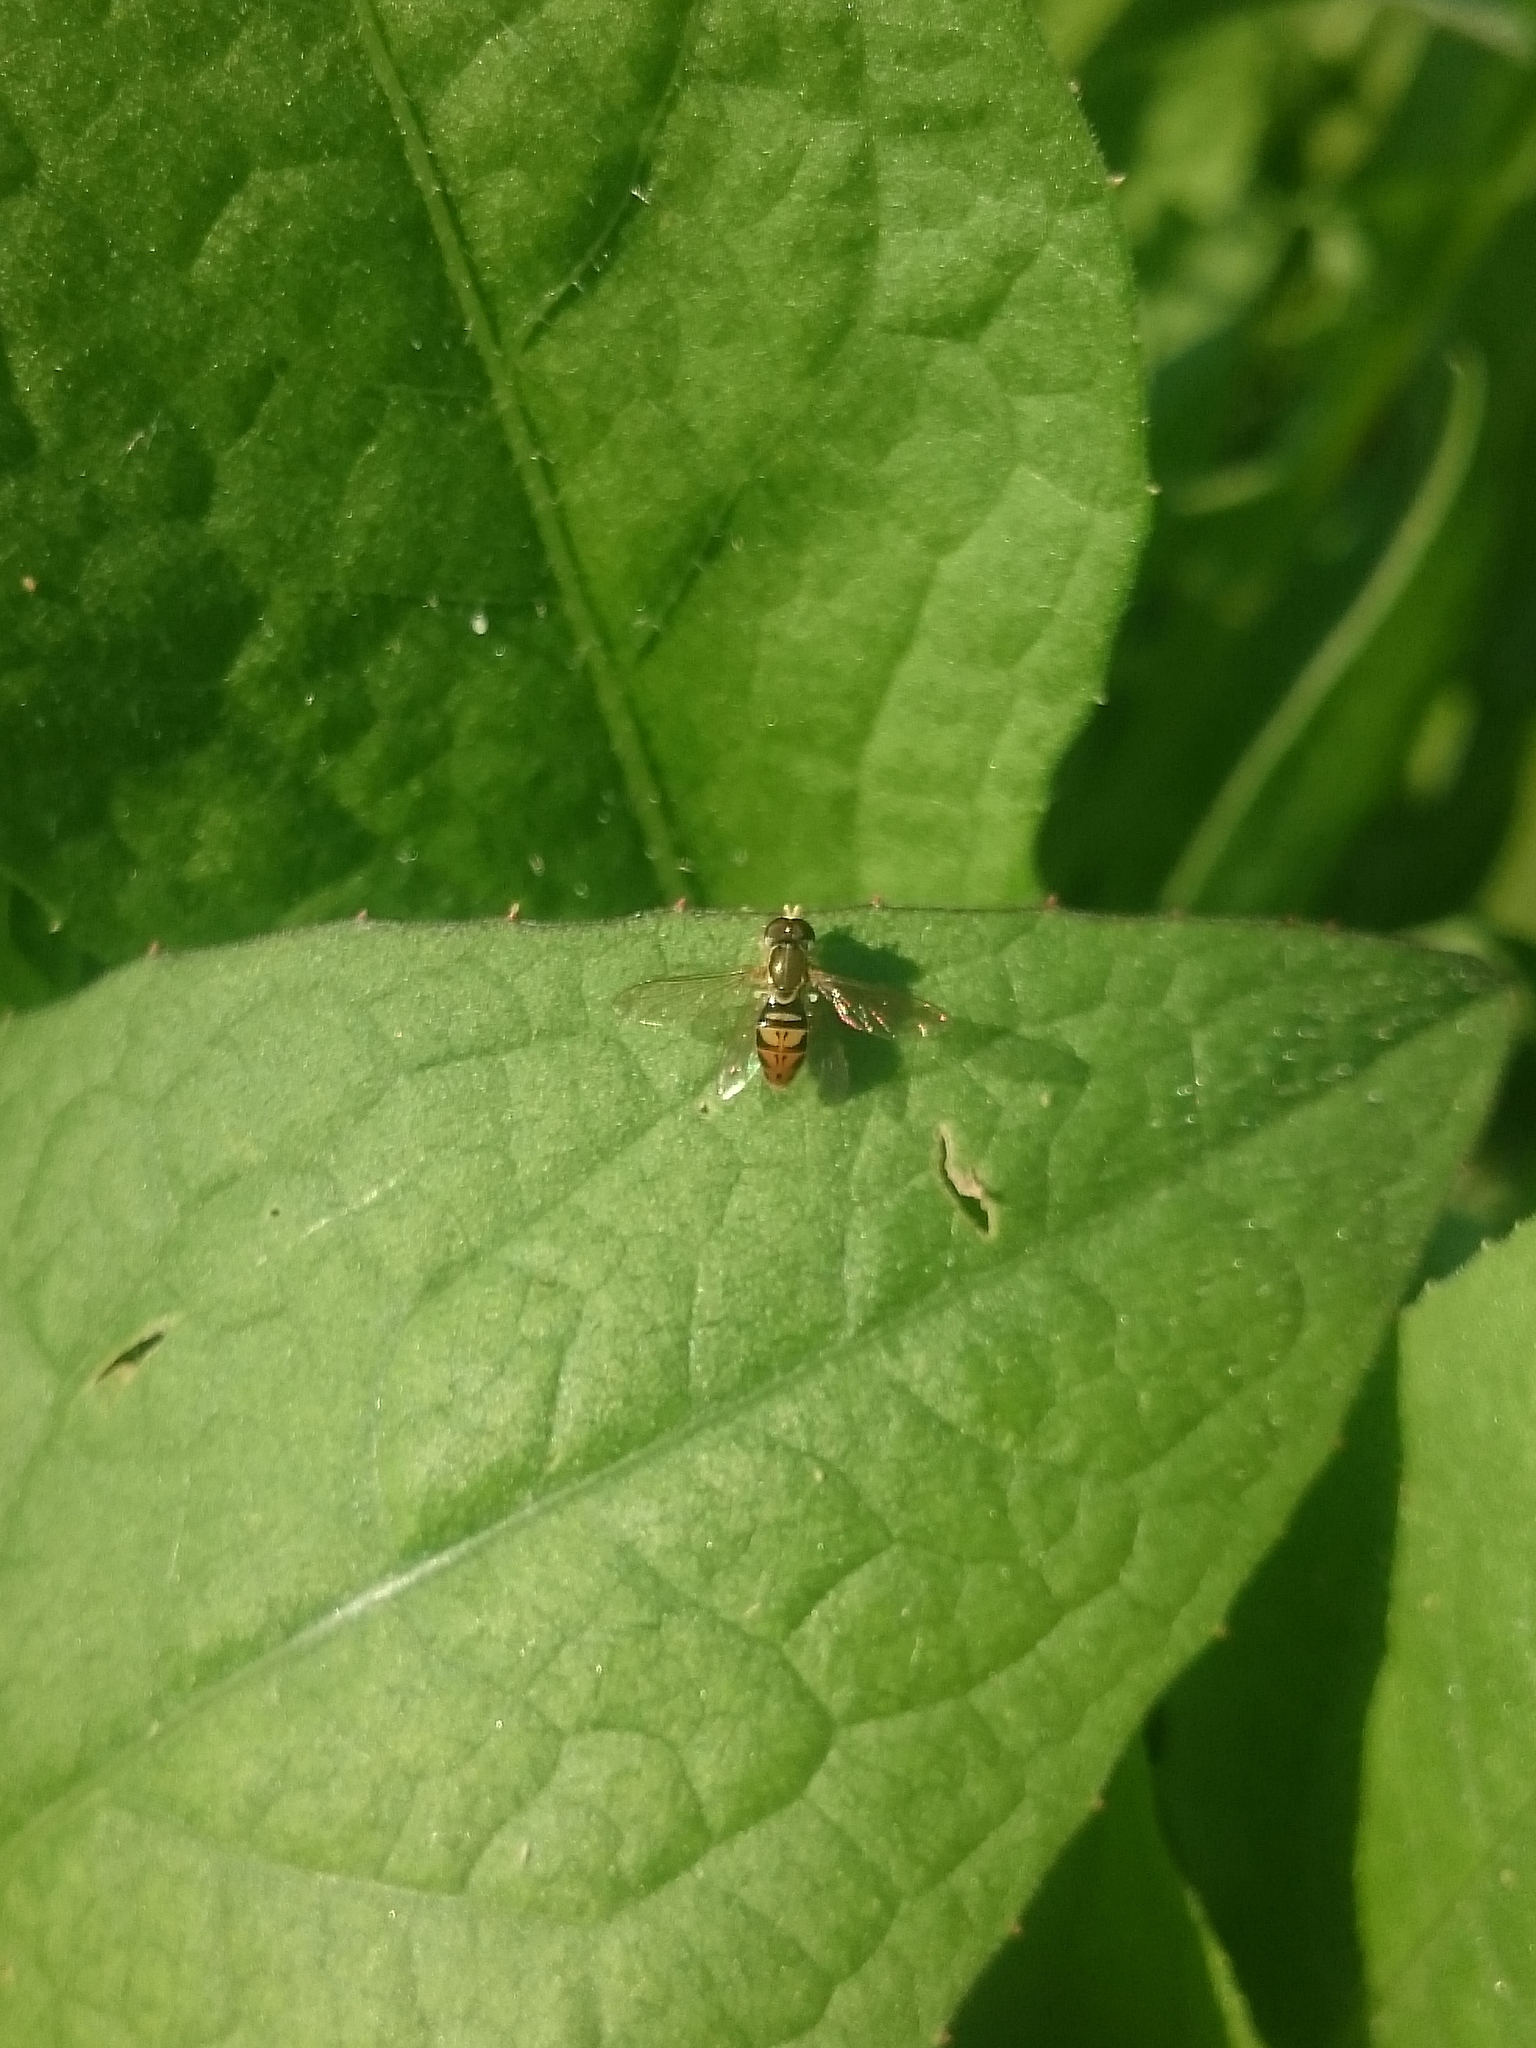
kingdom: Animalia
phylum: Arthropoda
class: Insecta
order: Diptera
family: Syrphidae
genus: Toxomerus
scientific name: Toxomerus marginatus
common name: Syrphid fly
